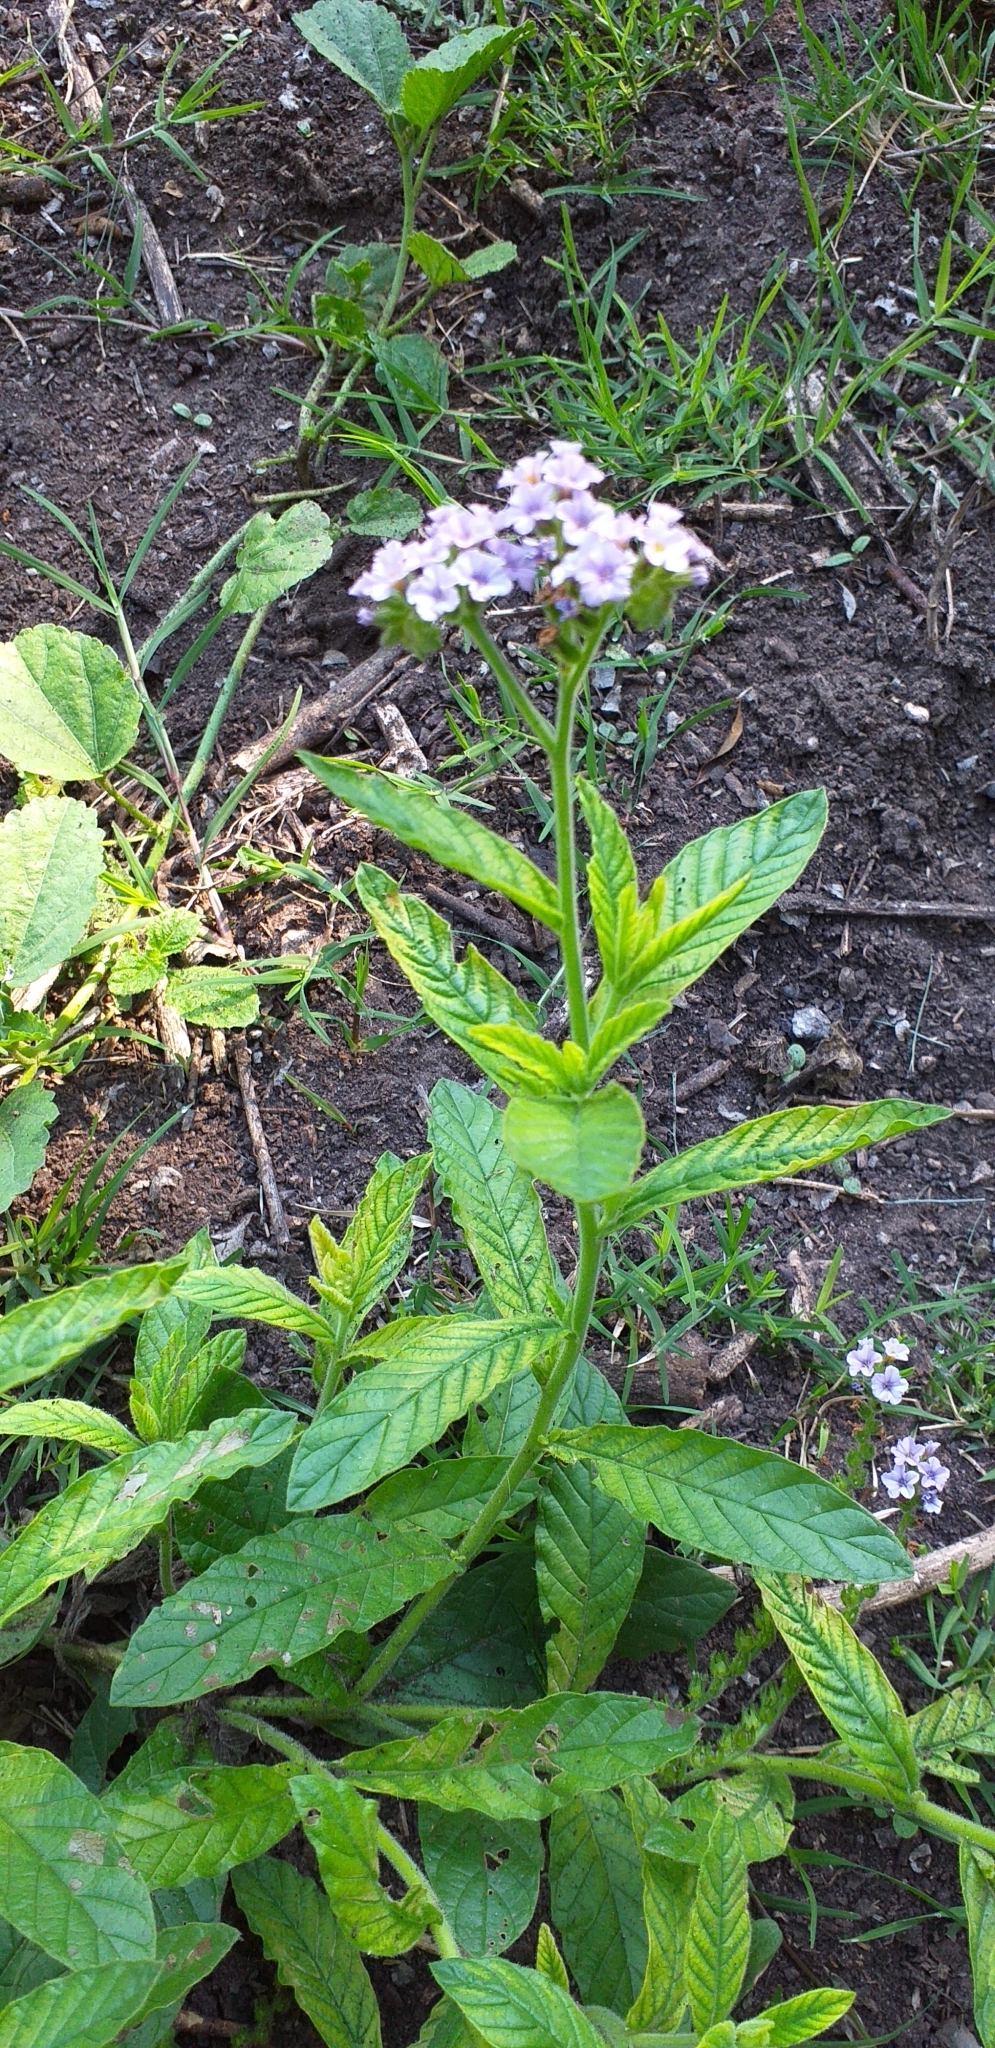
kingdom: Plantae
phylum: Tracheophyta
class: Magnoliopsida
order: Boraginales
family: Heliotropiaceae
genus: Heliotropium
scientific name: Heliotropium amplexicaule
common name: Clasping heliotrope
